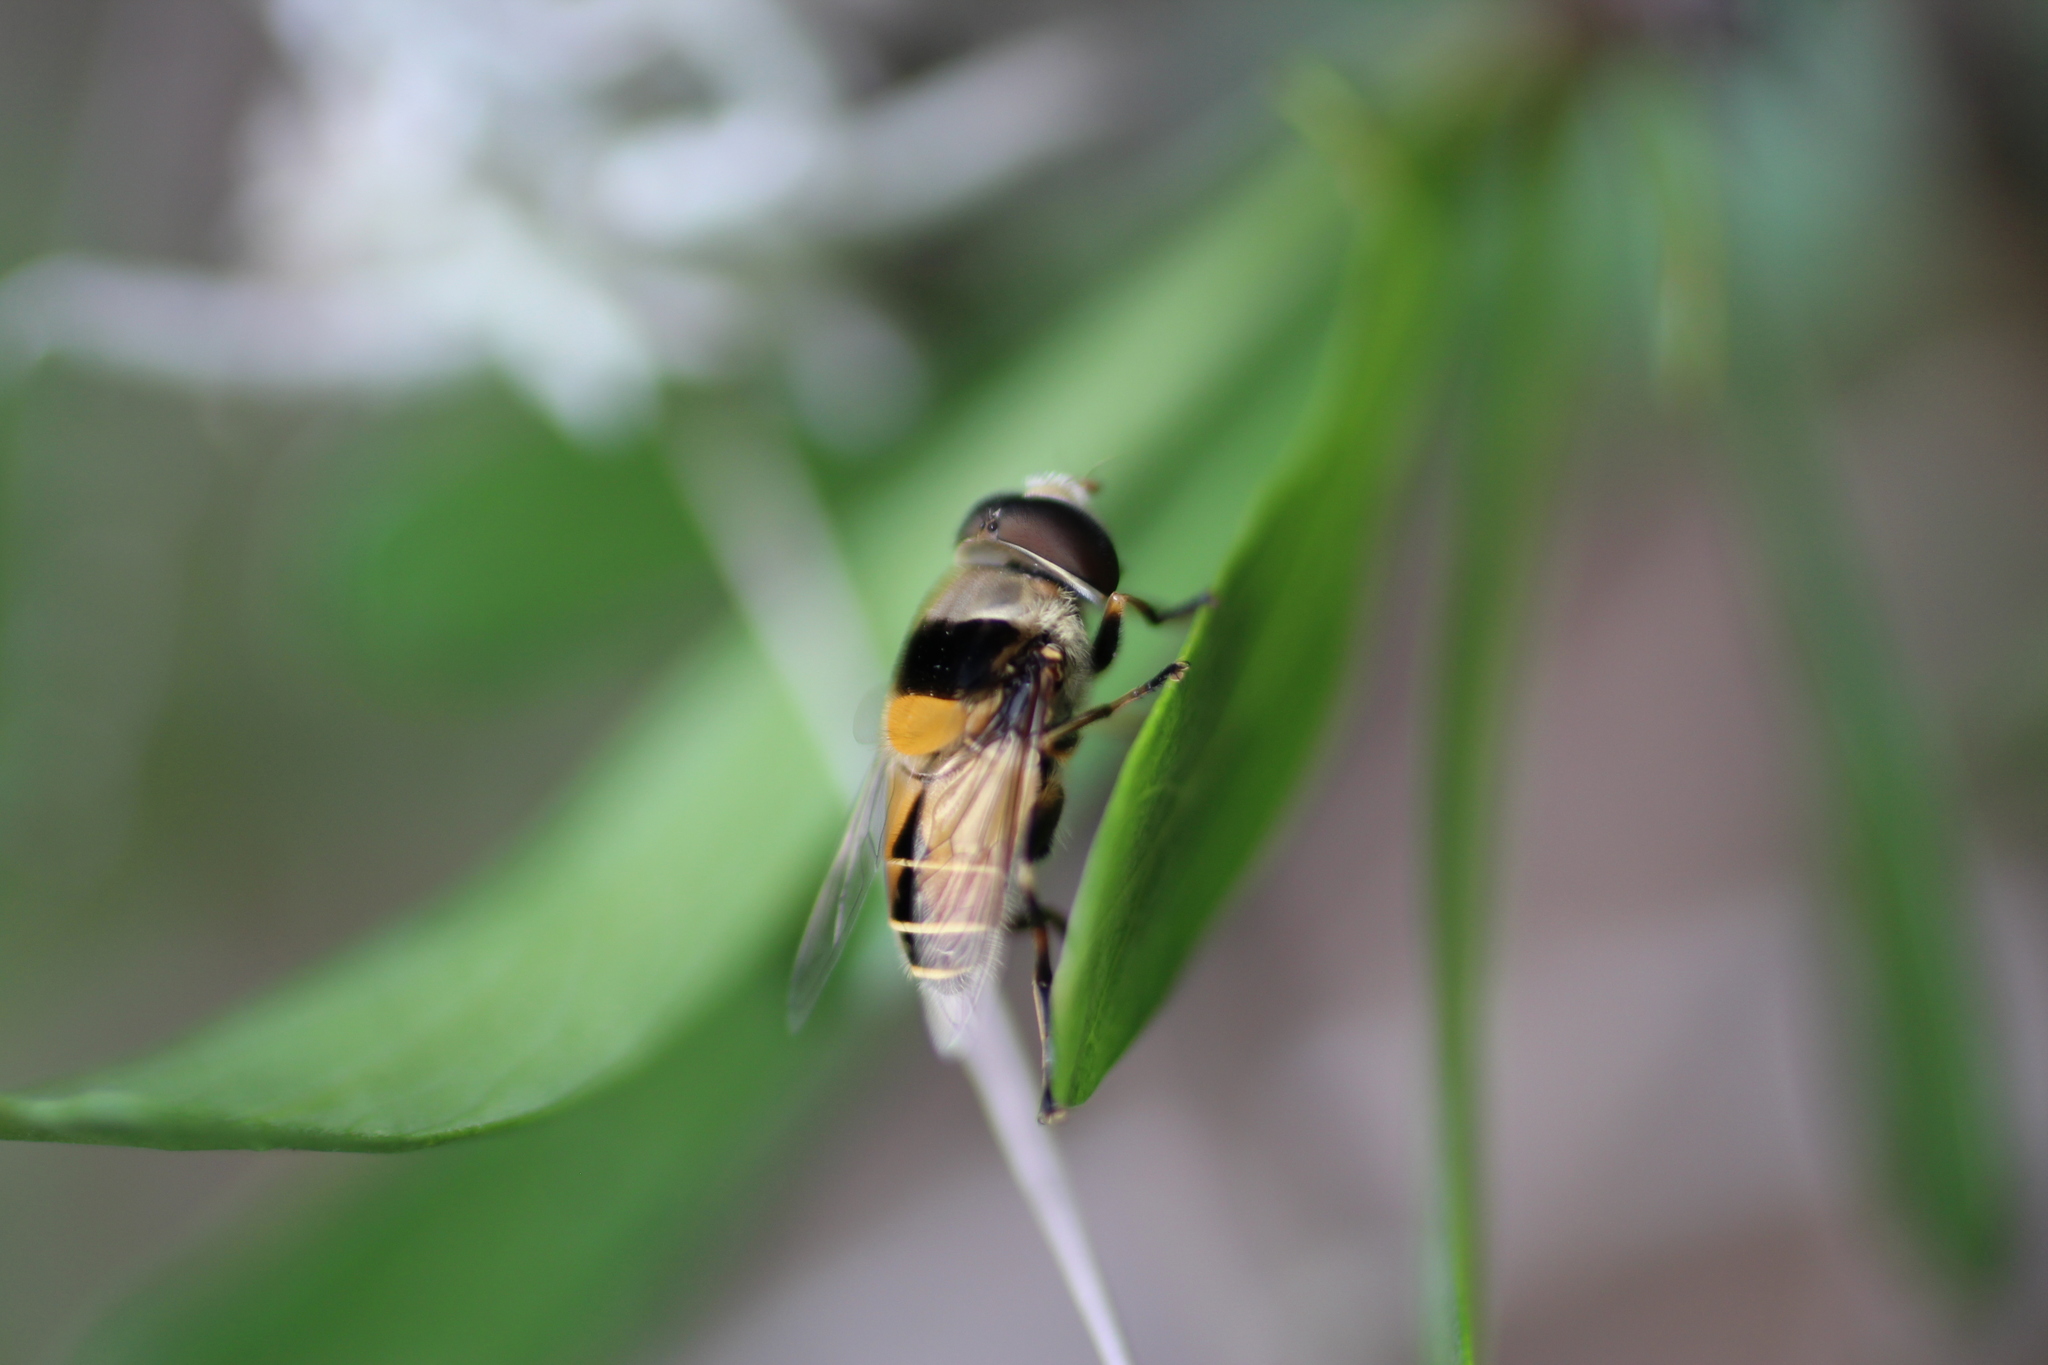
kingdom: Animalia
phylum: Arthropoda
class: Insecta
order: Diptera
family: Syrphidae
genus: Palpada
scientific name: Palpada pusilla
